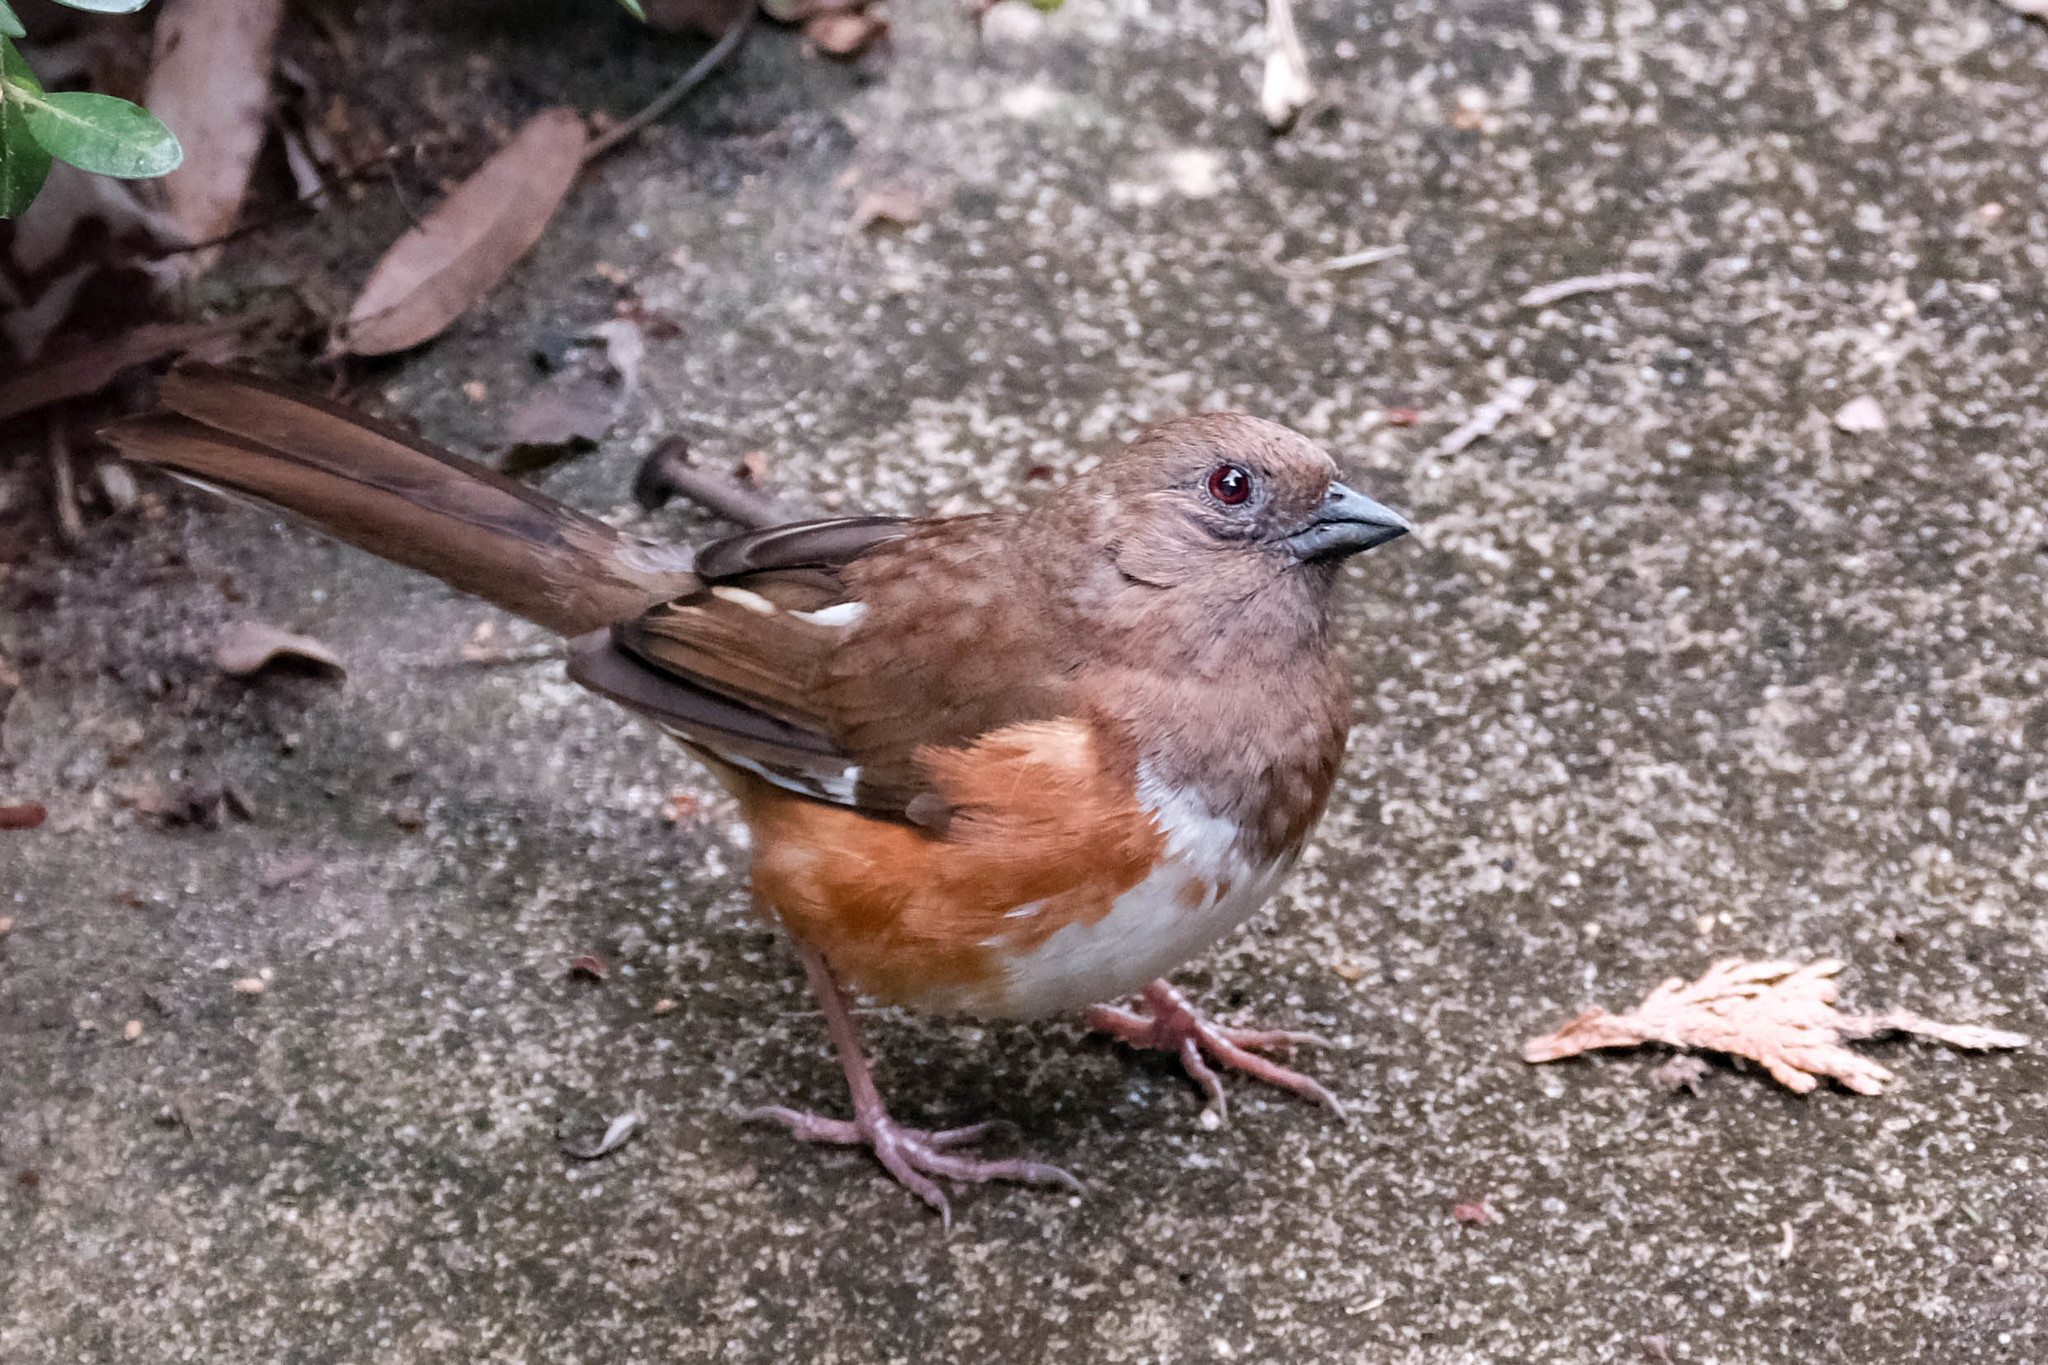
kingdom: Animalia
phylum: Chordata
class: Aves
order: Passeriformes
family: Passerellidae
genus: Pipilo
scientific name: Pipilo erythrophthalmus
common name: Eastern towhee
